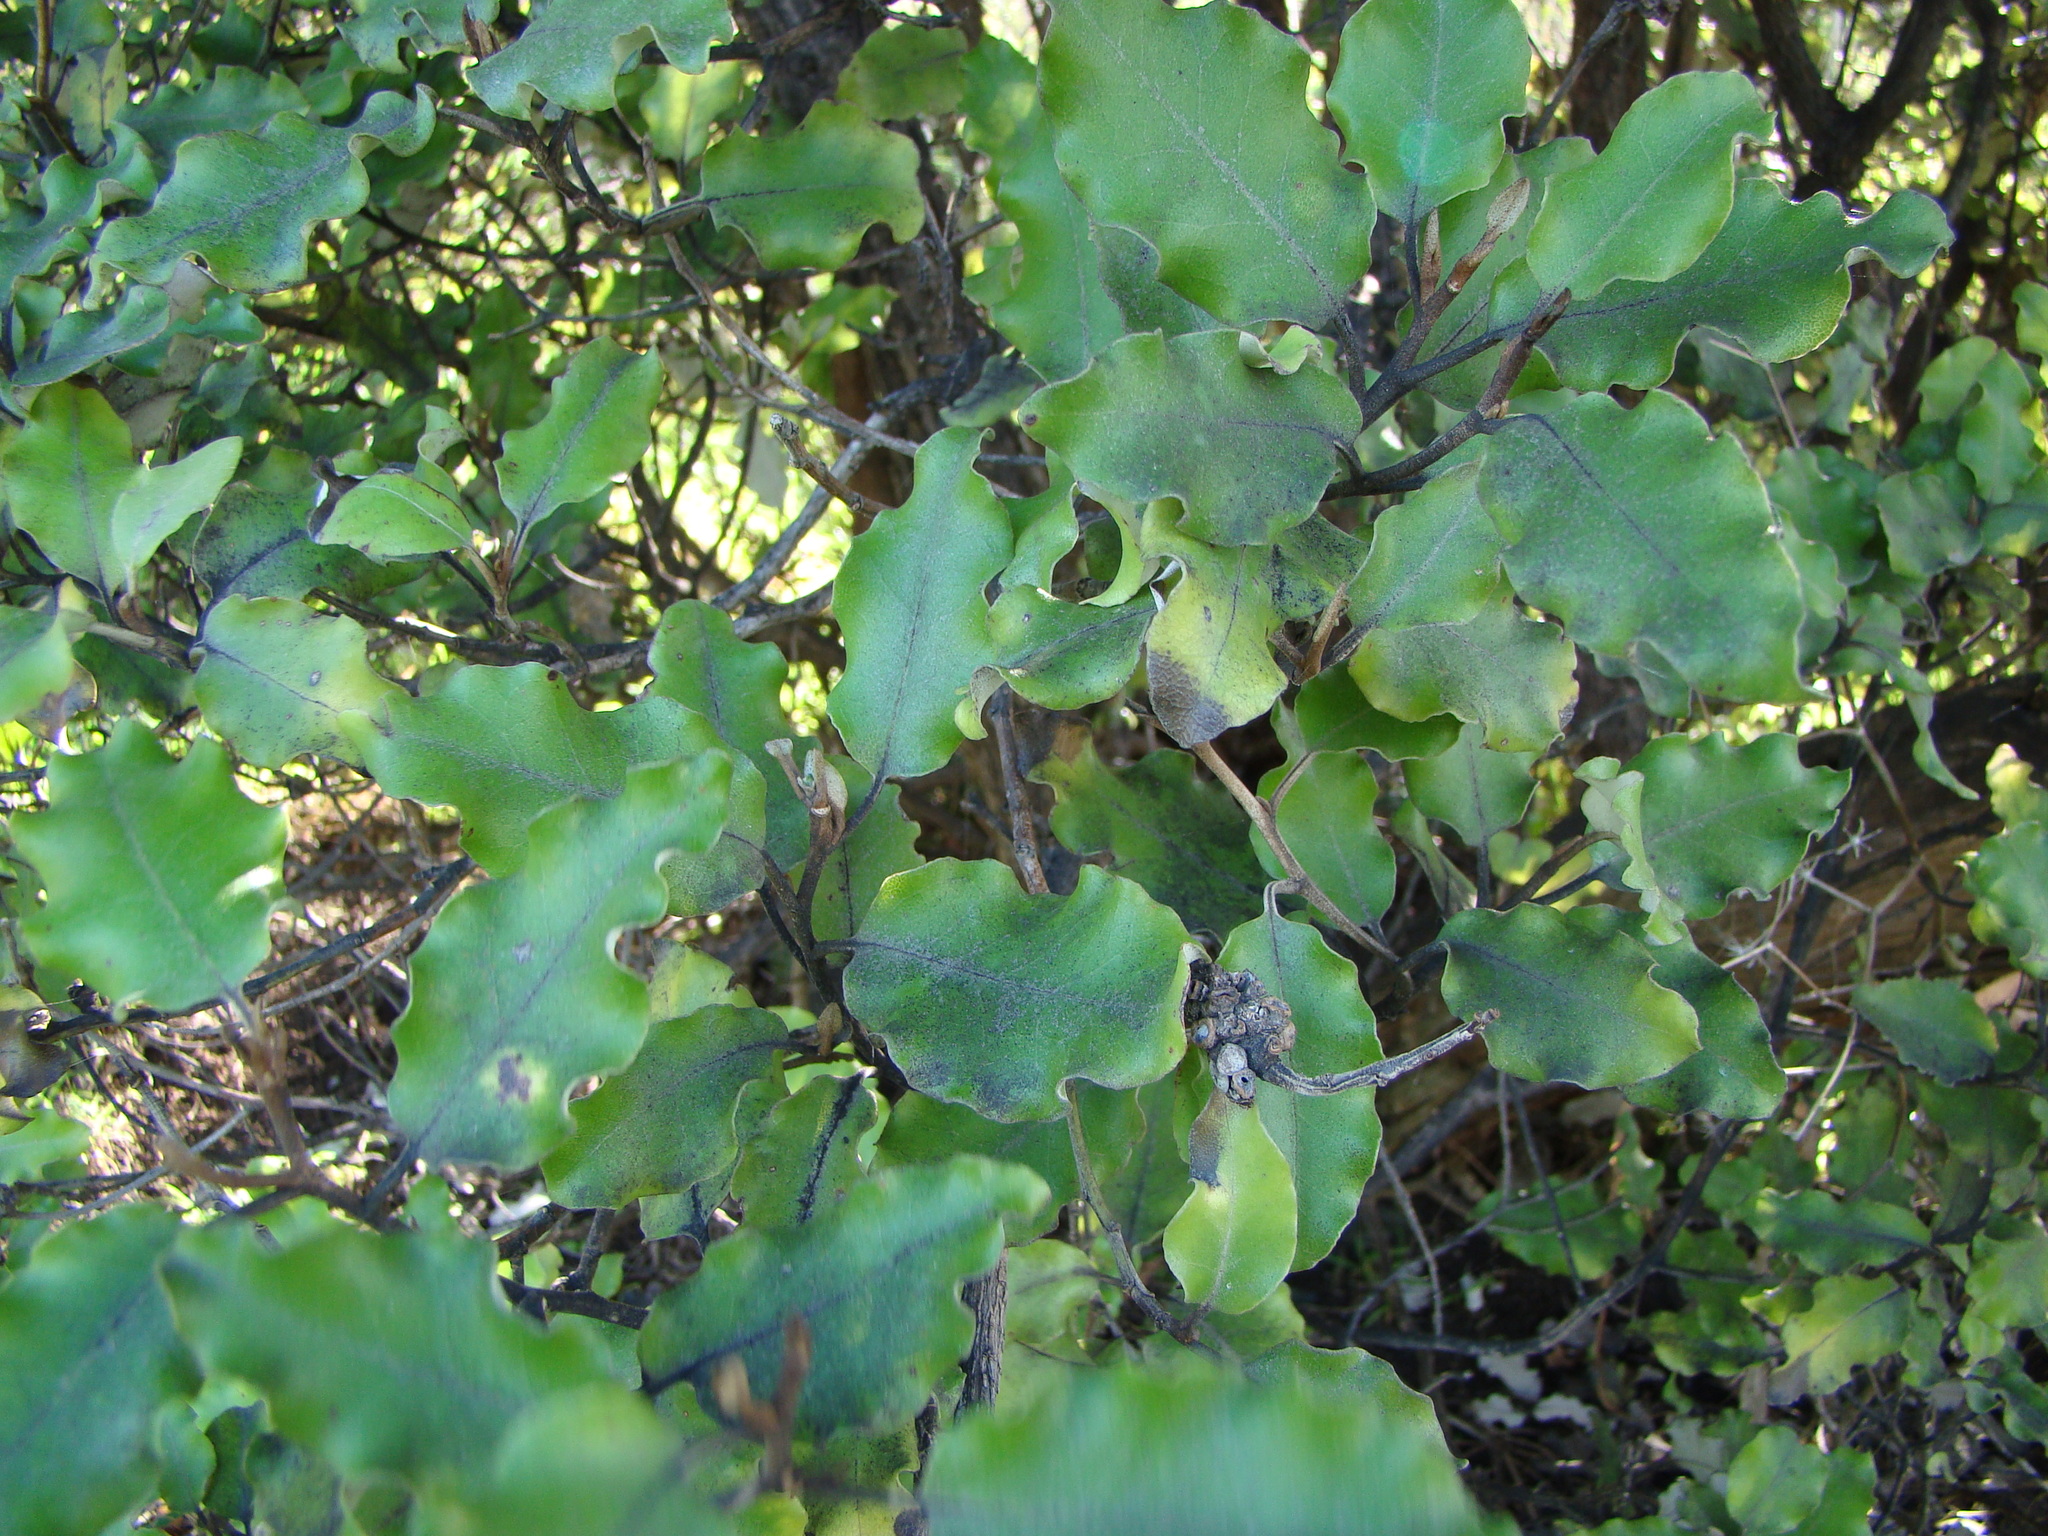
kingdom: Plantae
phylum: Tracheophyta
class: Magnoliopsida
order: Asterales
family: Asteraceae
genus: Olearia
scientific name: Olearia paniculata
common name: Akiraho
